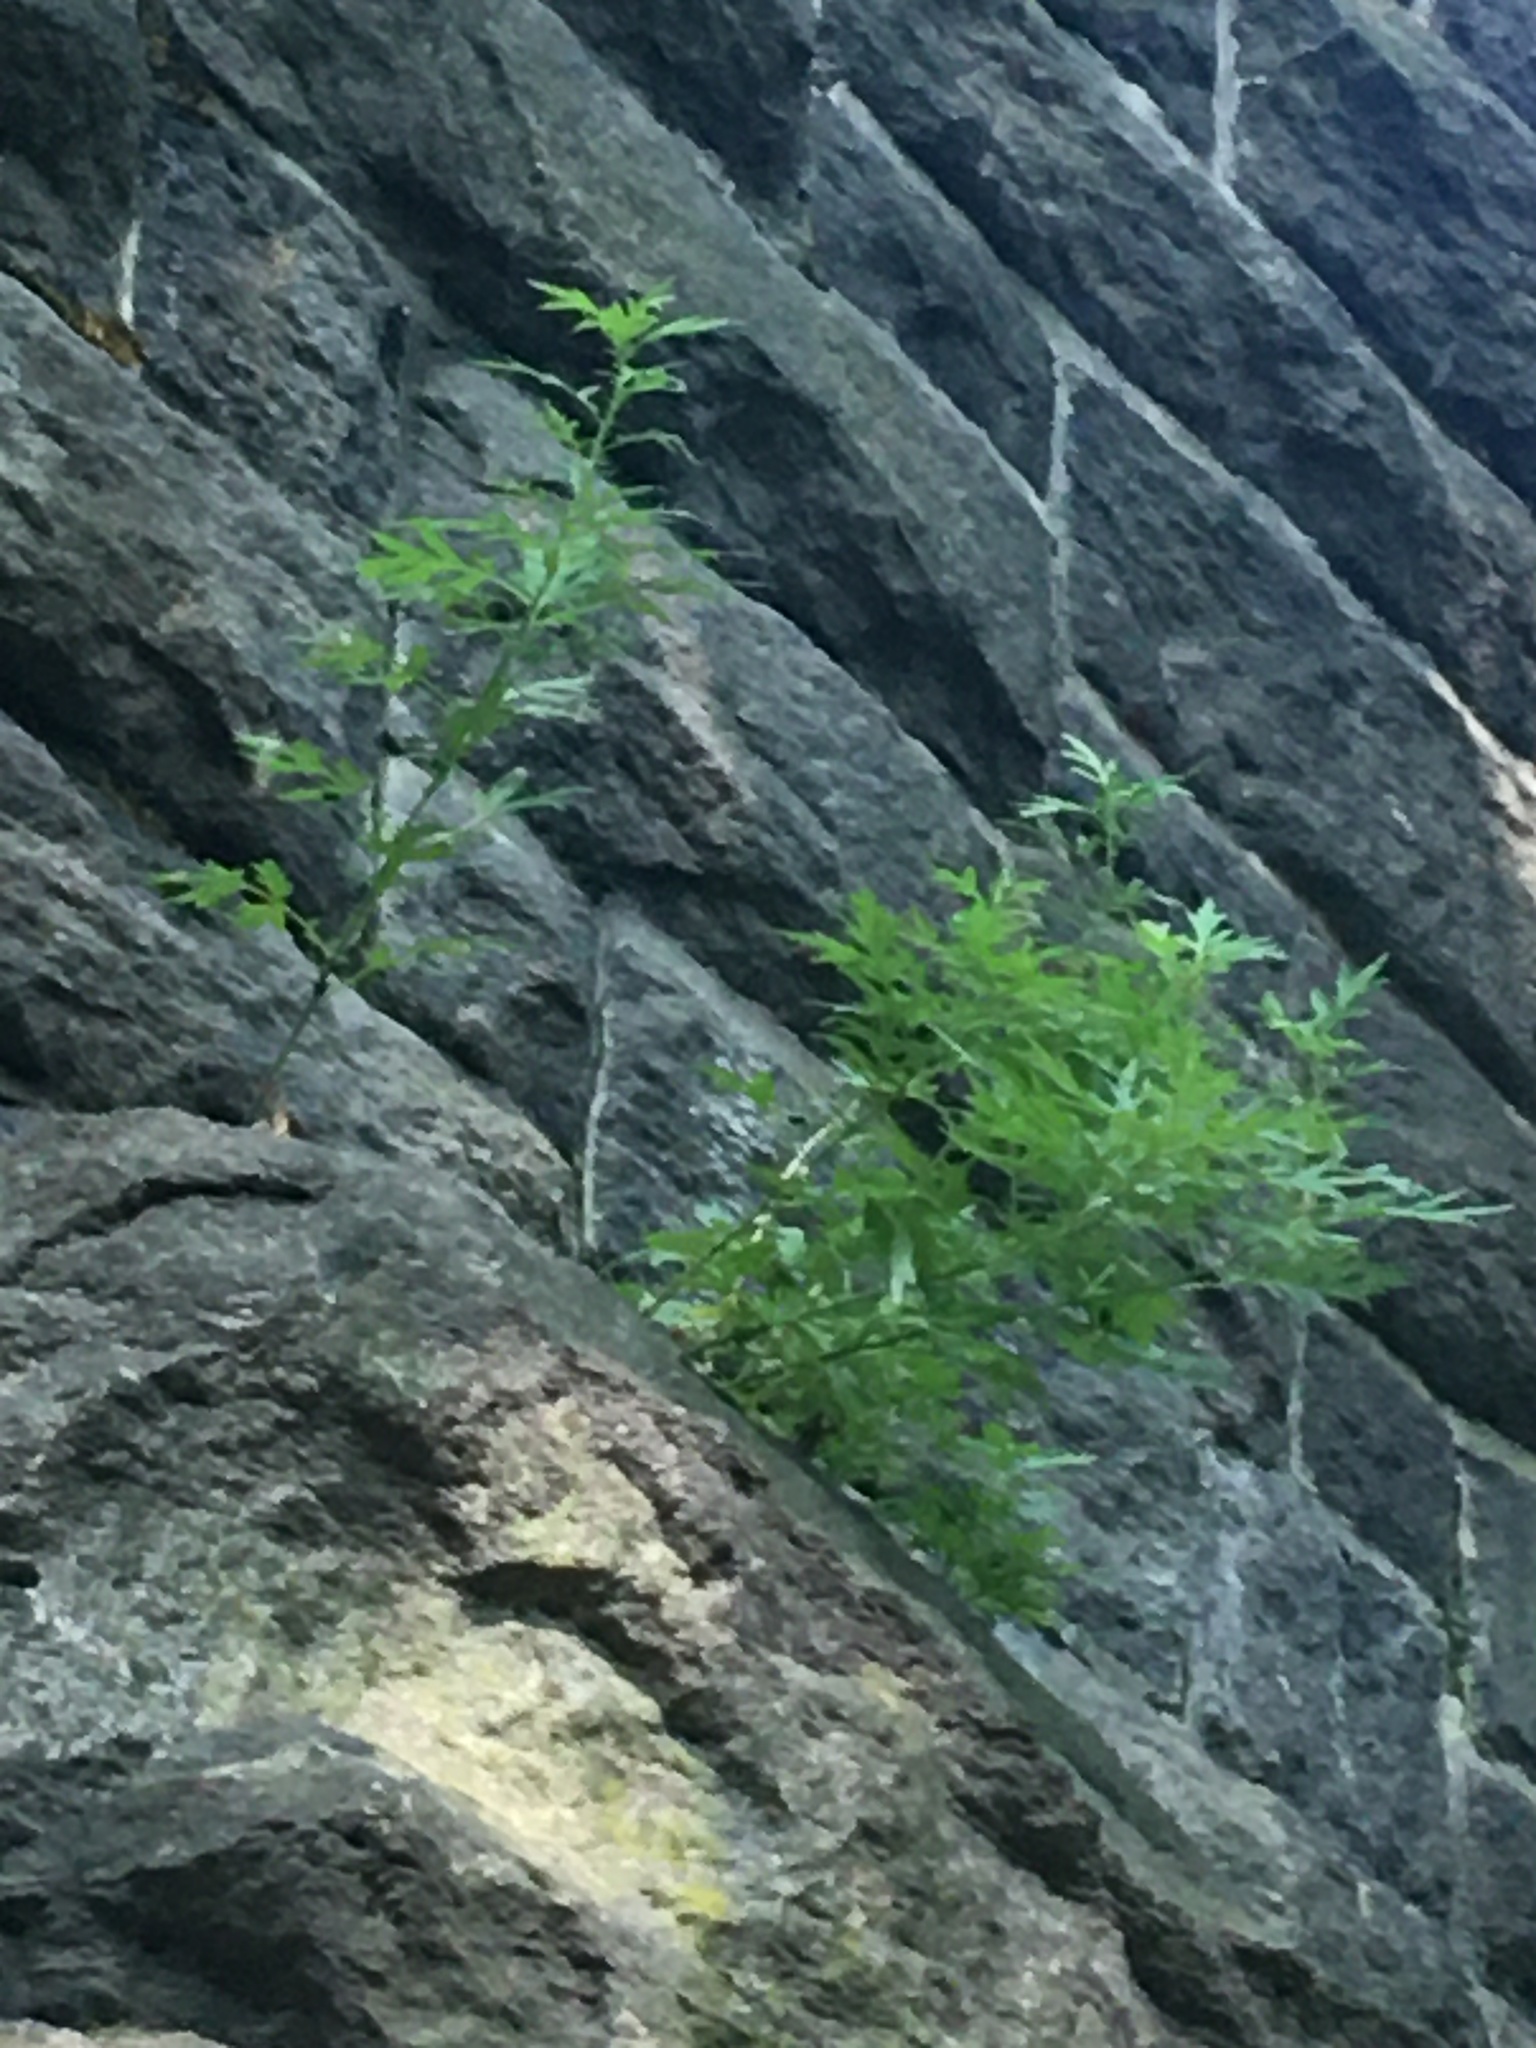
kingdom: Plantae
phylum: Tracheophyta
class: Magnoliopsida
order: Asterales
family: Asteraceae
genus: Artemisia
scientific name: Artemisia vulgaris
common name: Mugwort
